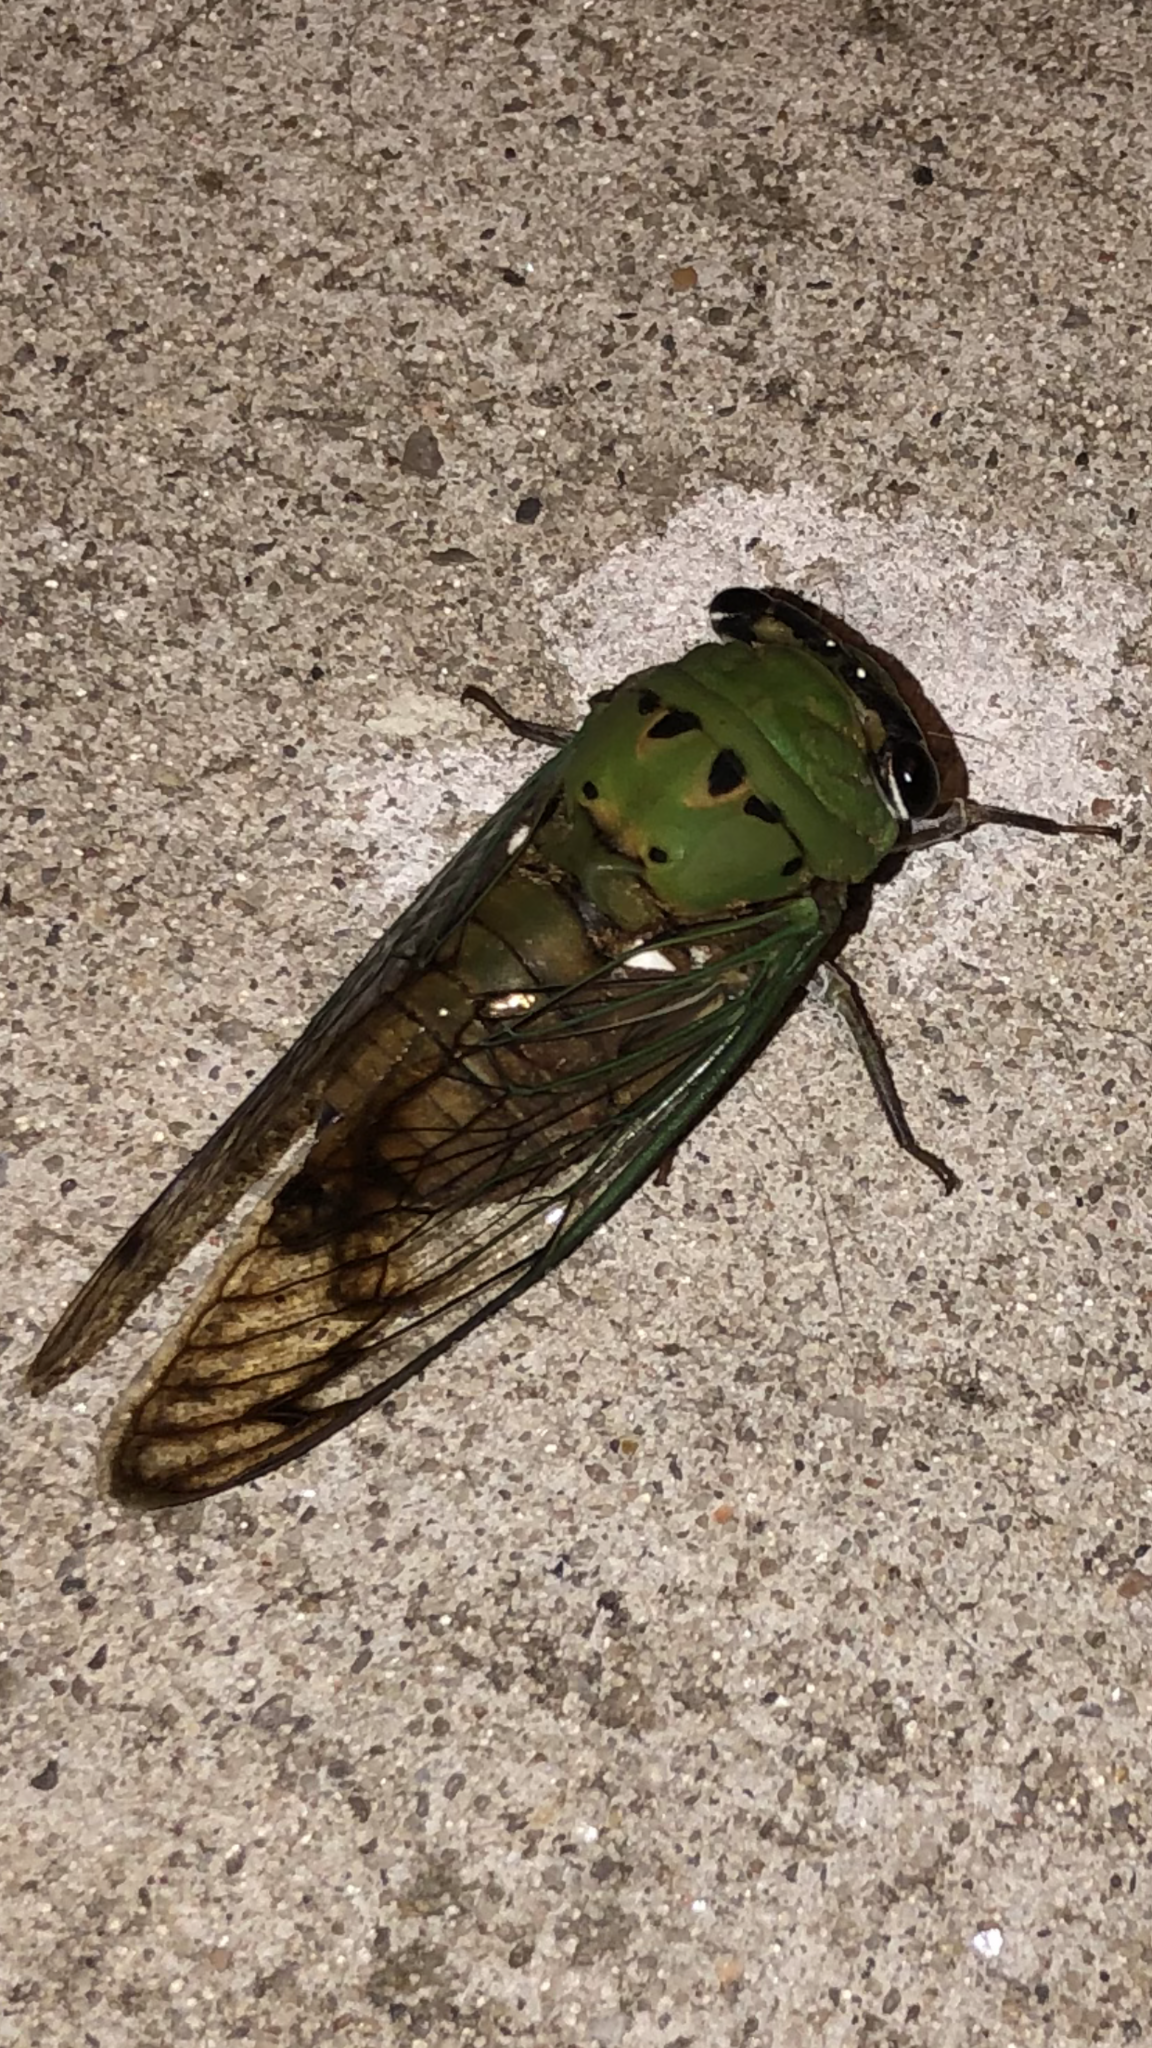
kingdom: Animalia
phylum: Arthropoda
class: Insecta
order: Hemiptera
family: Cicadidae
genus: Neotibicen
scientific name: Neotibicen superbus
